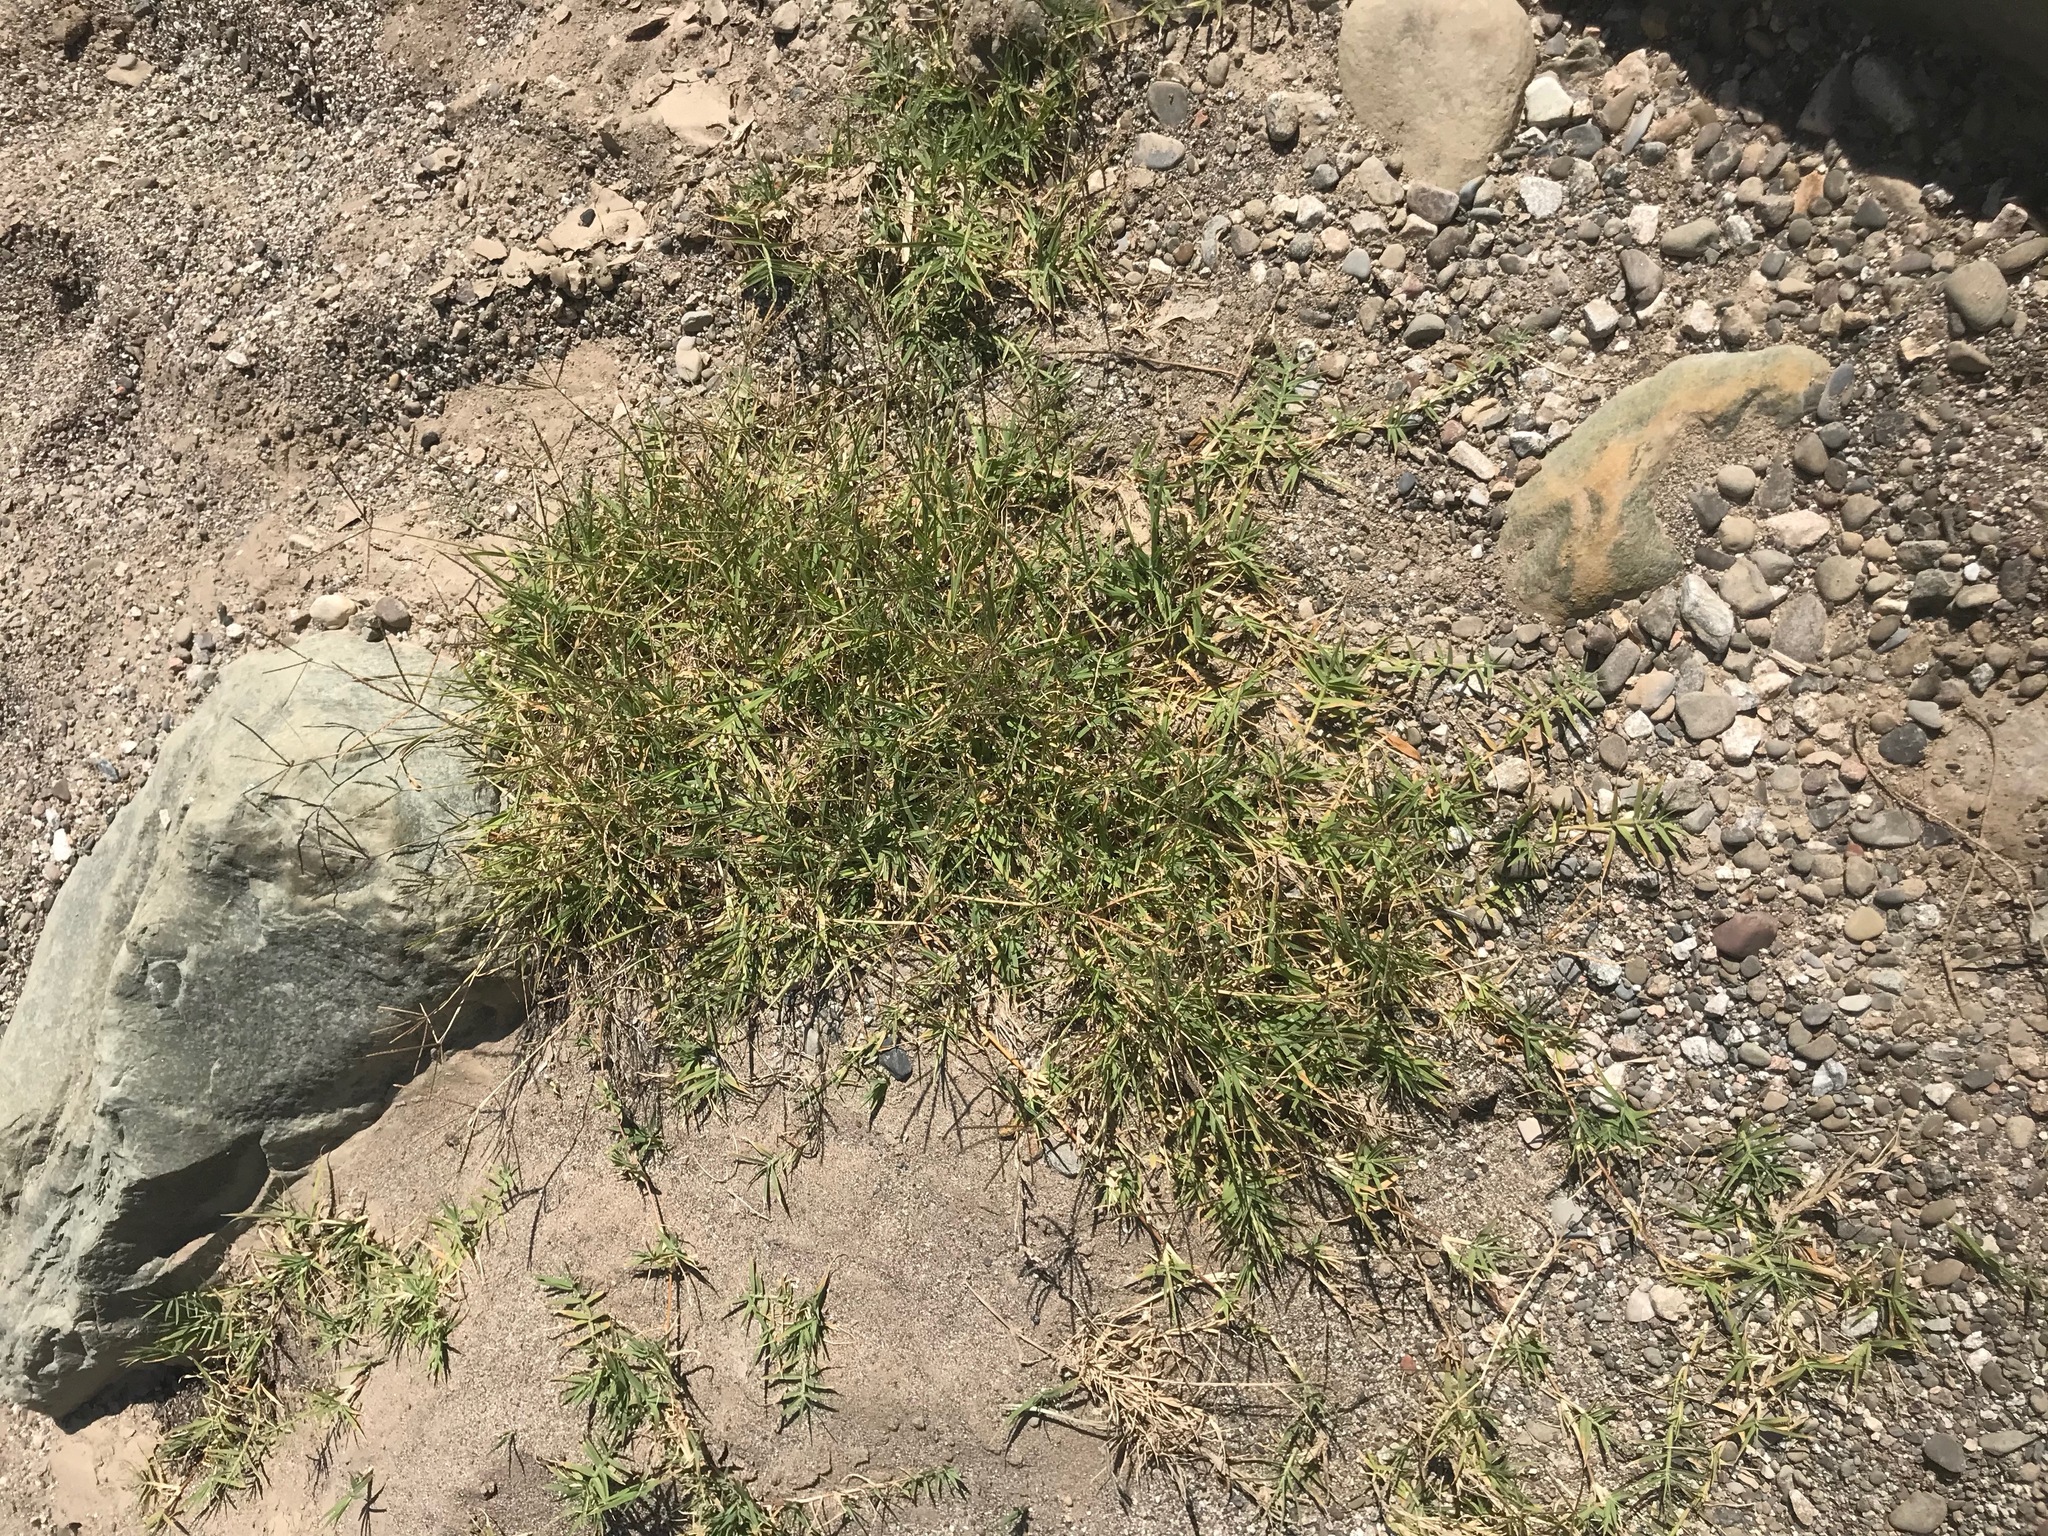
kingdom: Plantae
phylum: Tracheophyta
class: Liliopsida
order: Poales
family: Poaceae
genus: Cynodon
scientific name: Cynodon dactylon
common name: Bermuda grass
